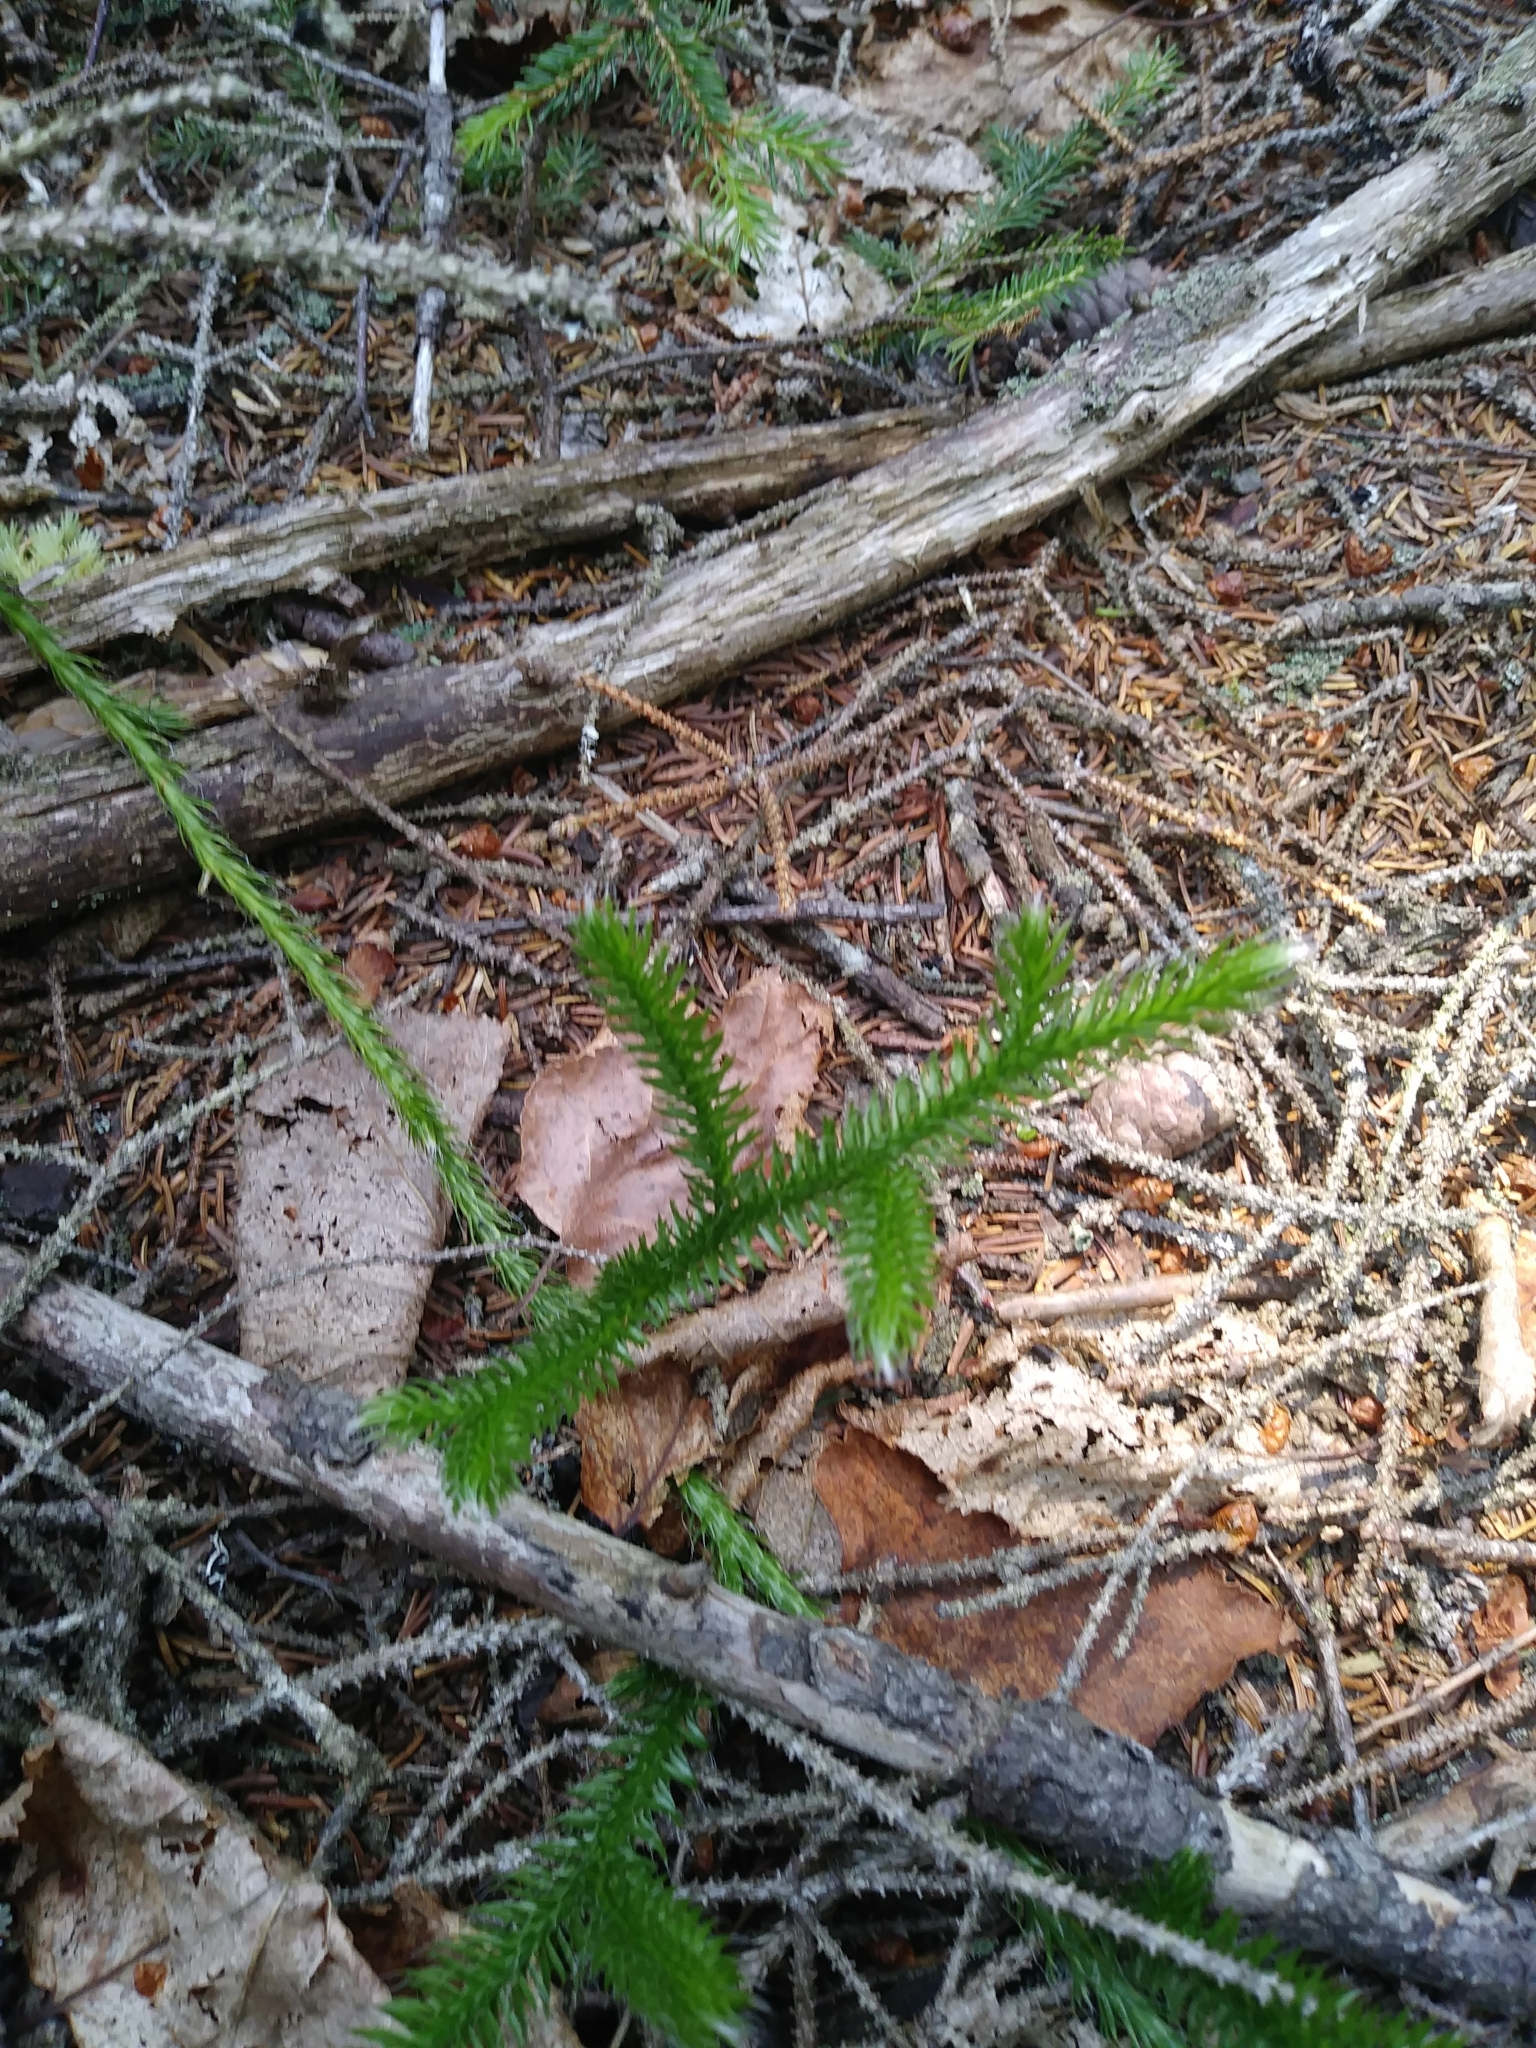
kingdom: Plantae
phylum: Tracheophyta
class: Lycopodiopsida
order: Lycopodiales
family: Lycopodiaceae
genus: Lycopodium
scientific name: Lycopodium clavatum
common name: Stag's-horn clubmoss
